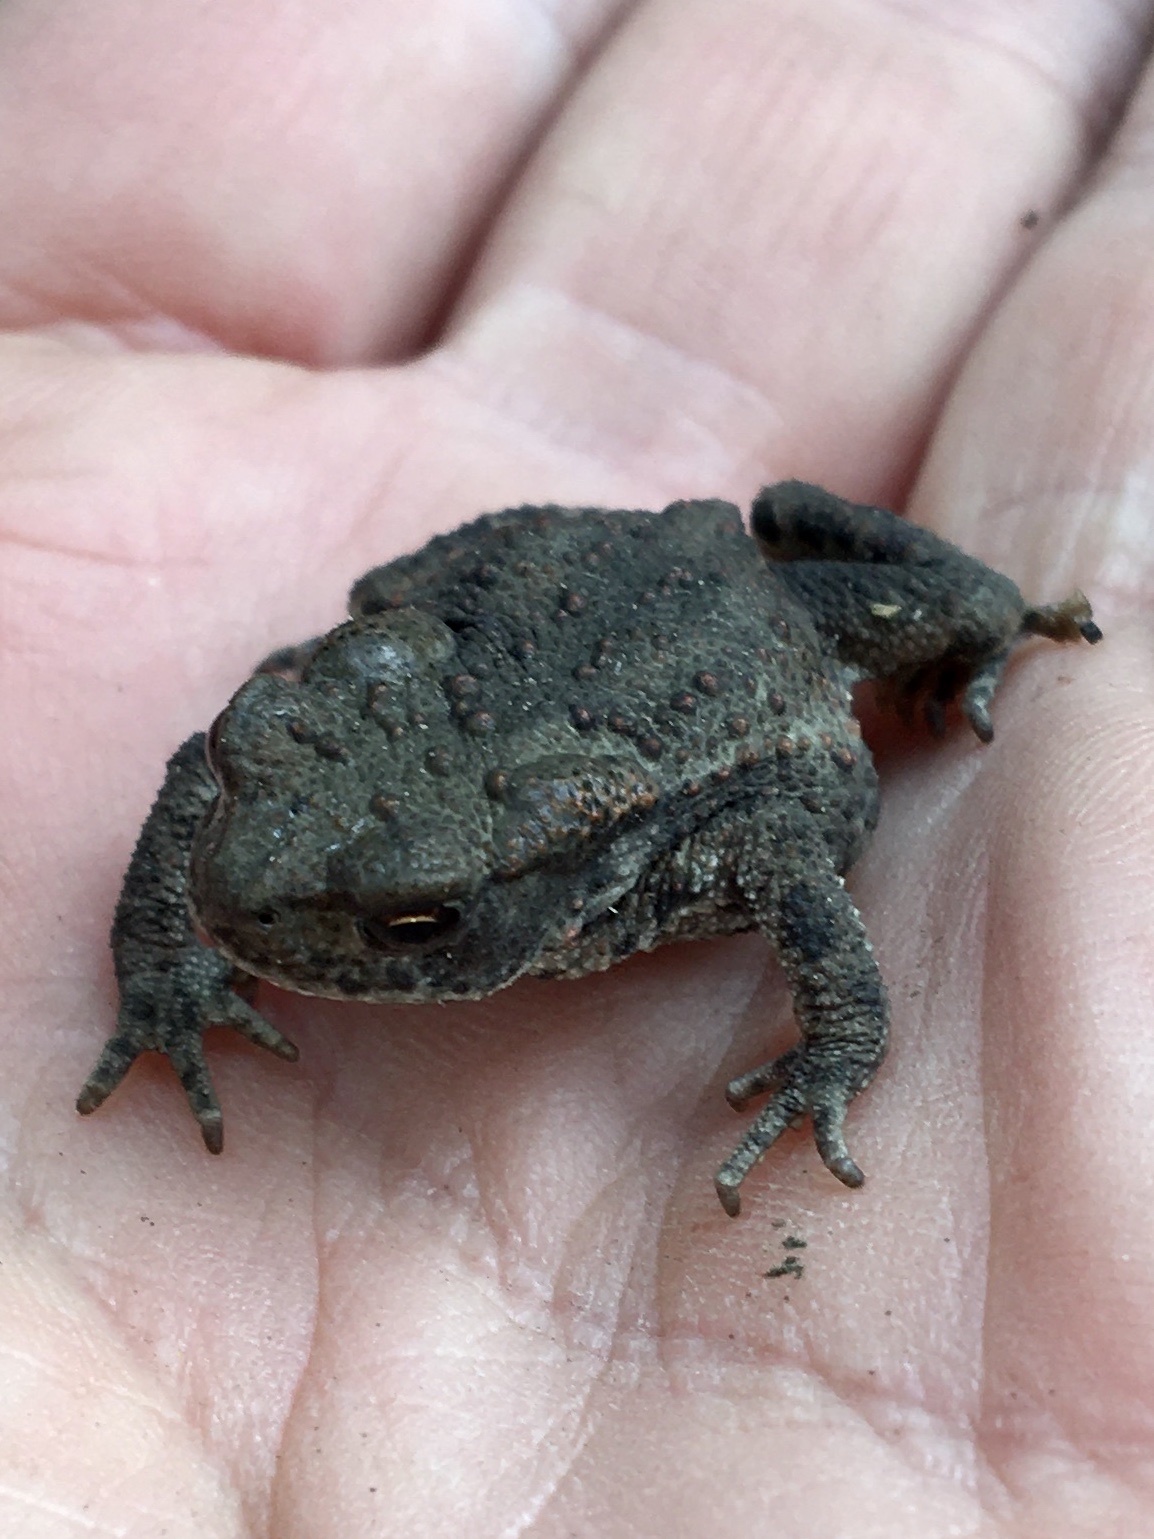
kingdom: Animalia
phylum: Chordata
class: Amphibia
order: Anura
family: Bufonidae
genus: Bufo
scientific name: Bufo bufo
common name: Common toad
